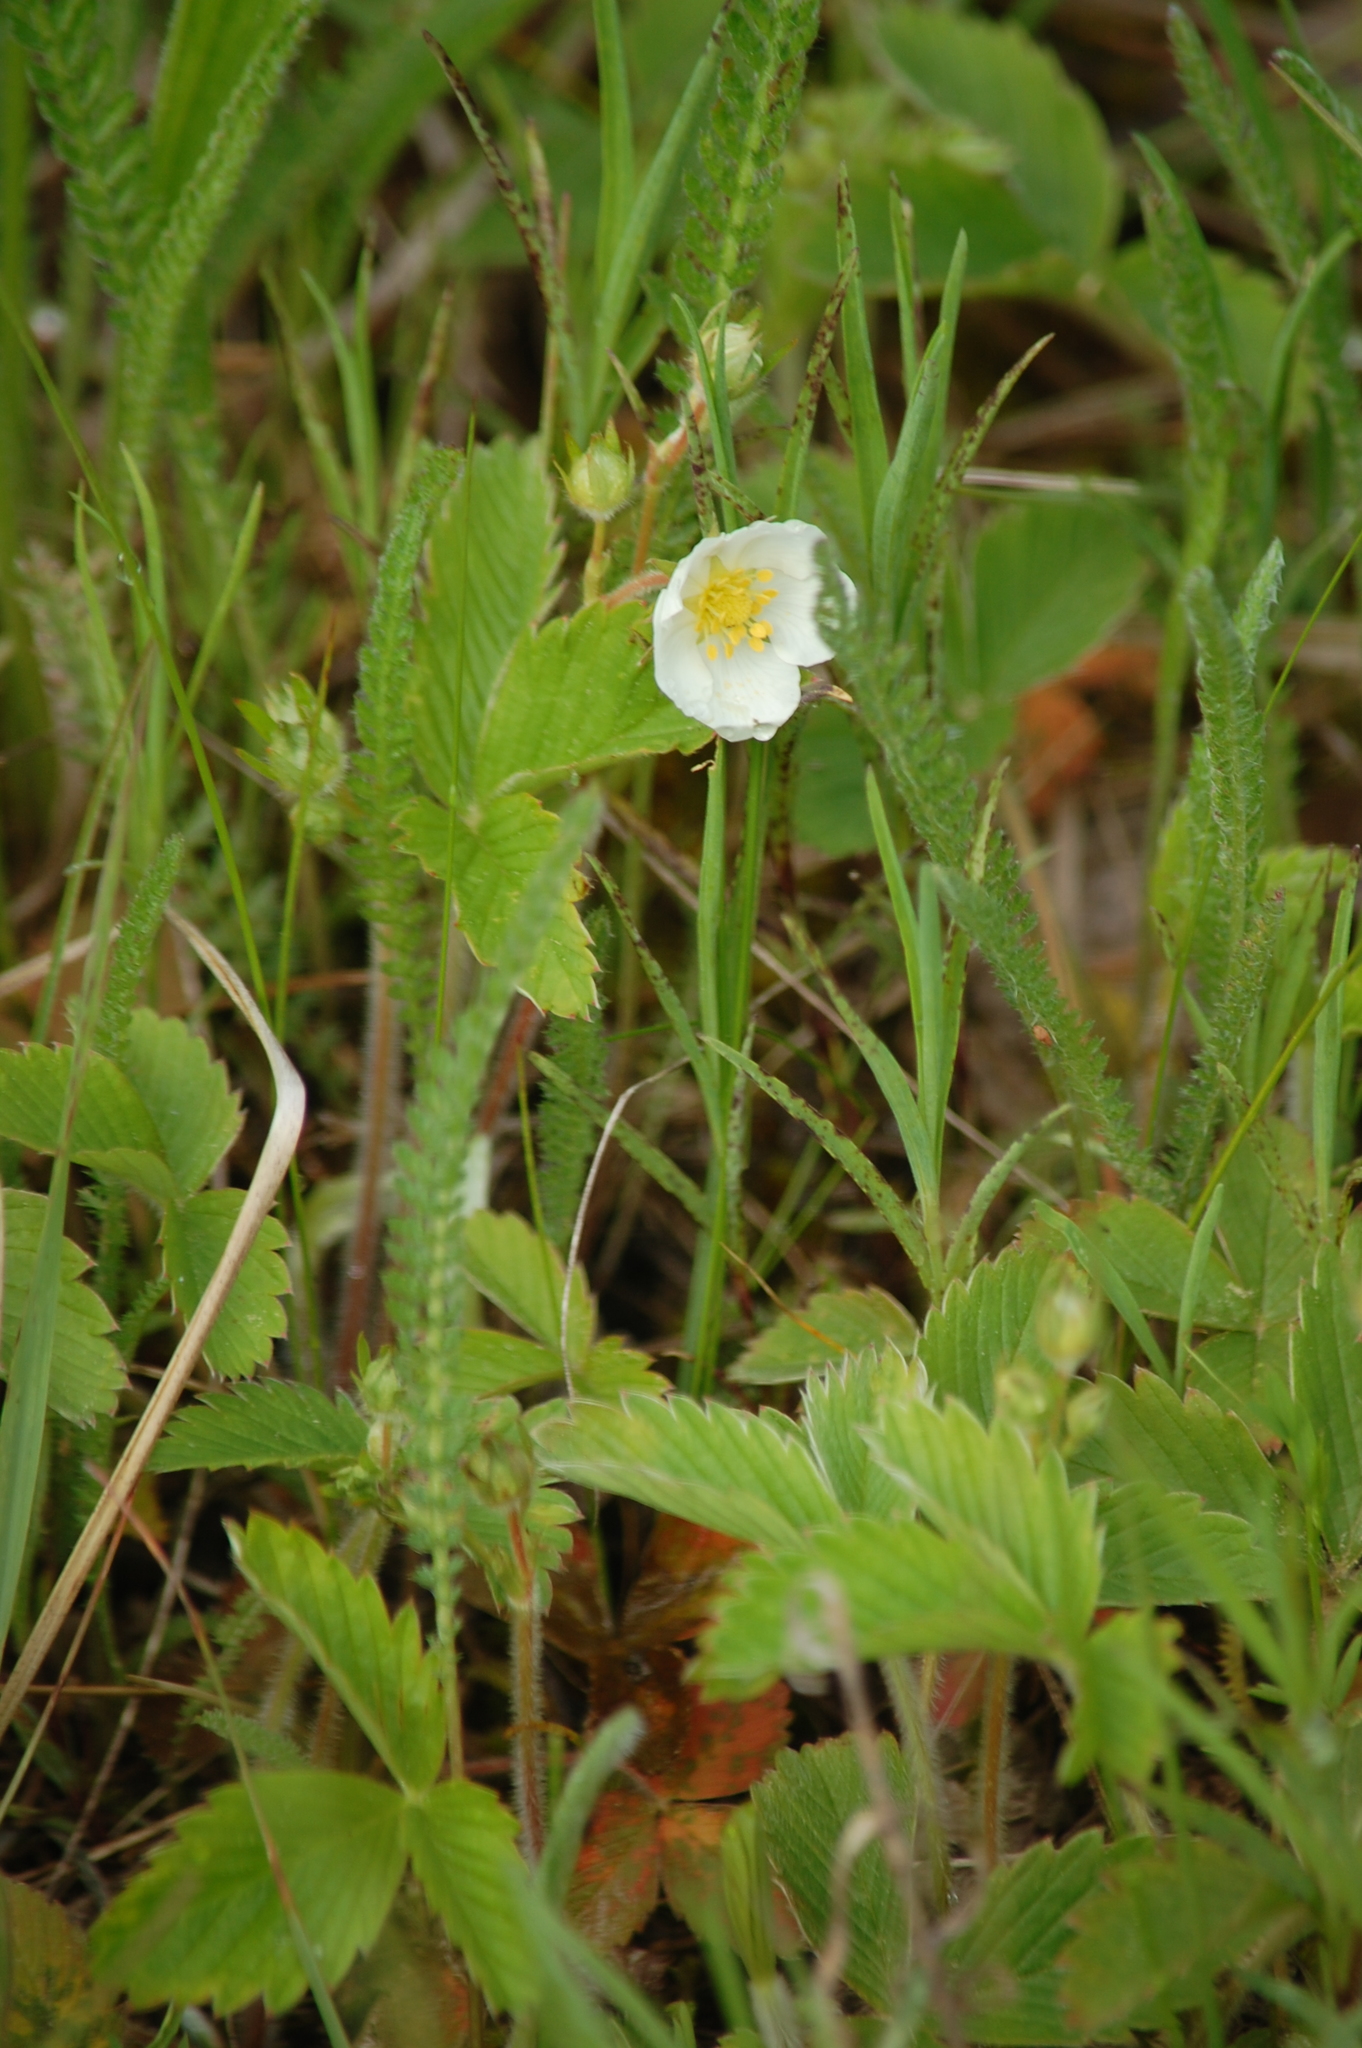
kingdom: Plantae
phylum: Tracheophyta
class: Magnoliopsida
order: Rosales
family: Rosaceae
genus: Fragaria
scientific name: Fragaria viridis
